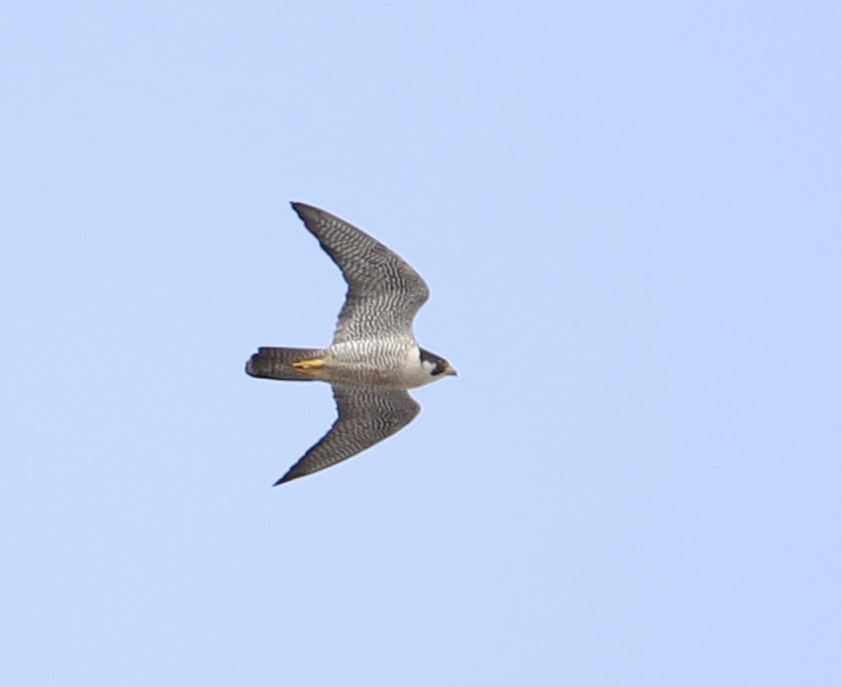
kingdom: Animalia
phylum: Chordata
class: Aves
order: Falconiformes
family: Falconidae
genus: Falco
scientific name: Falco peregrinus
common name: Peregrine falcon
